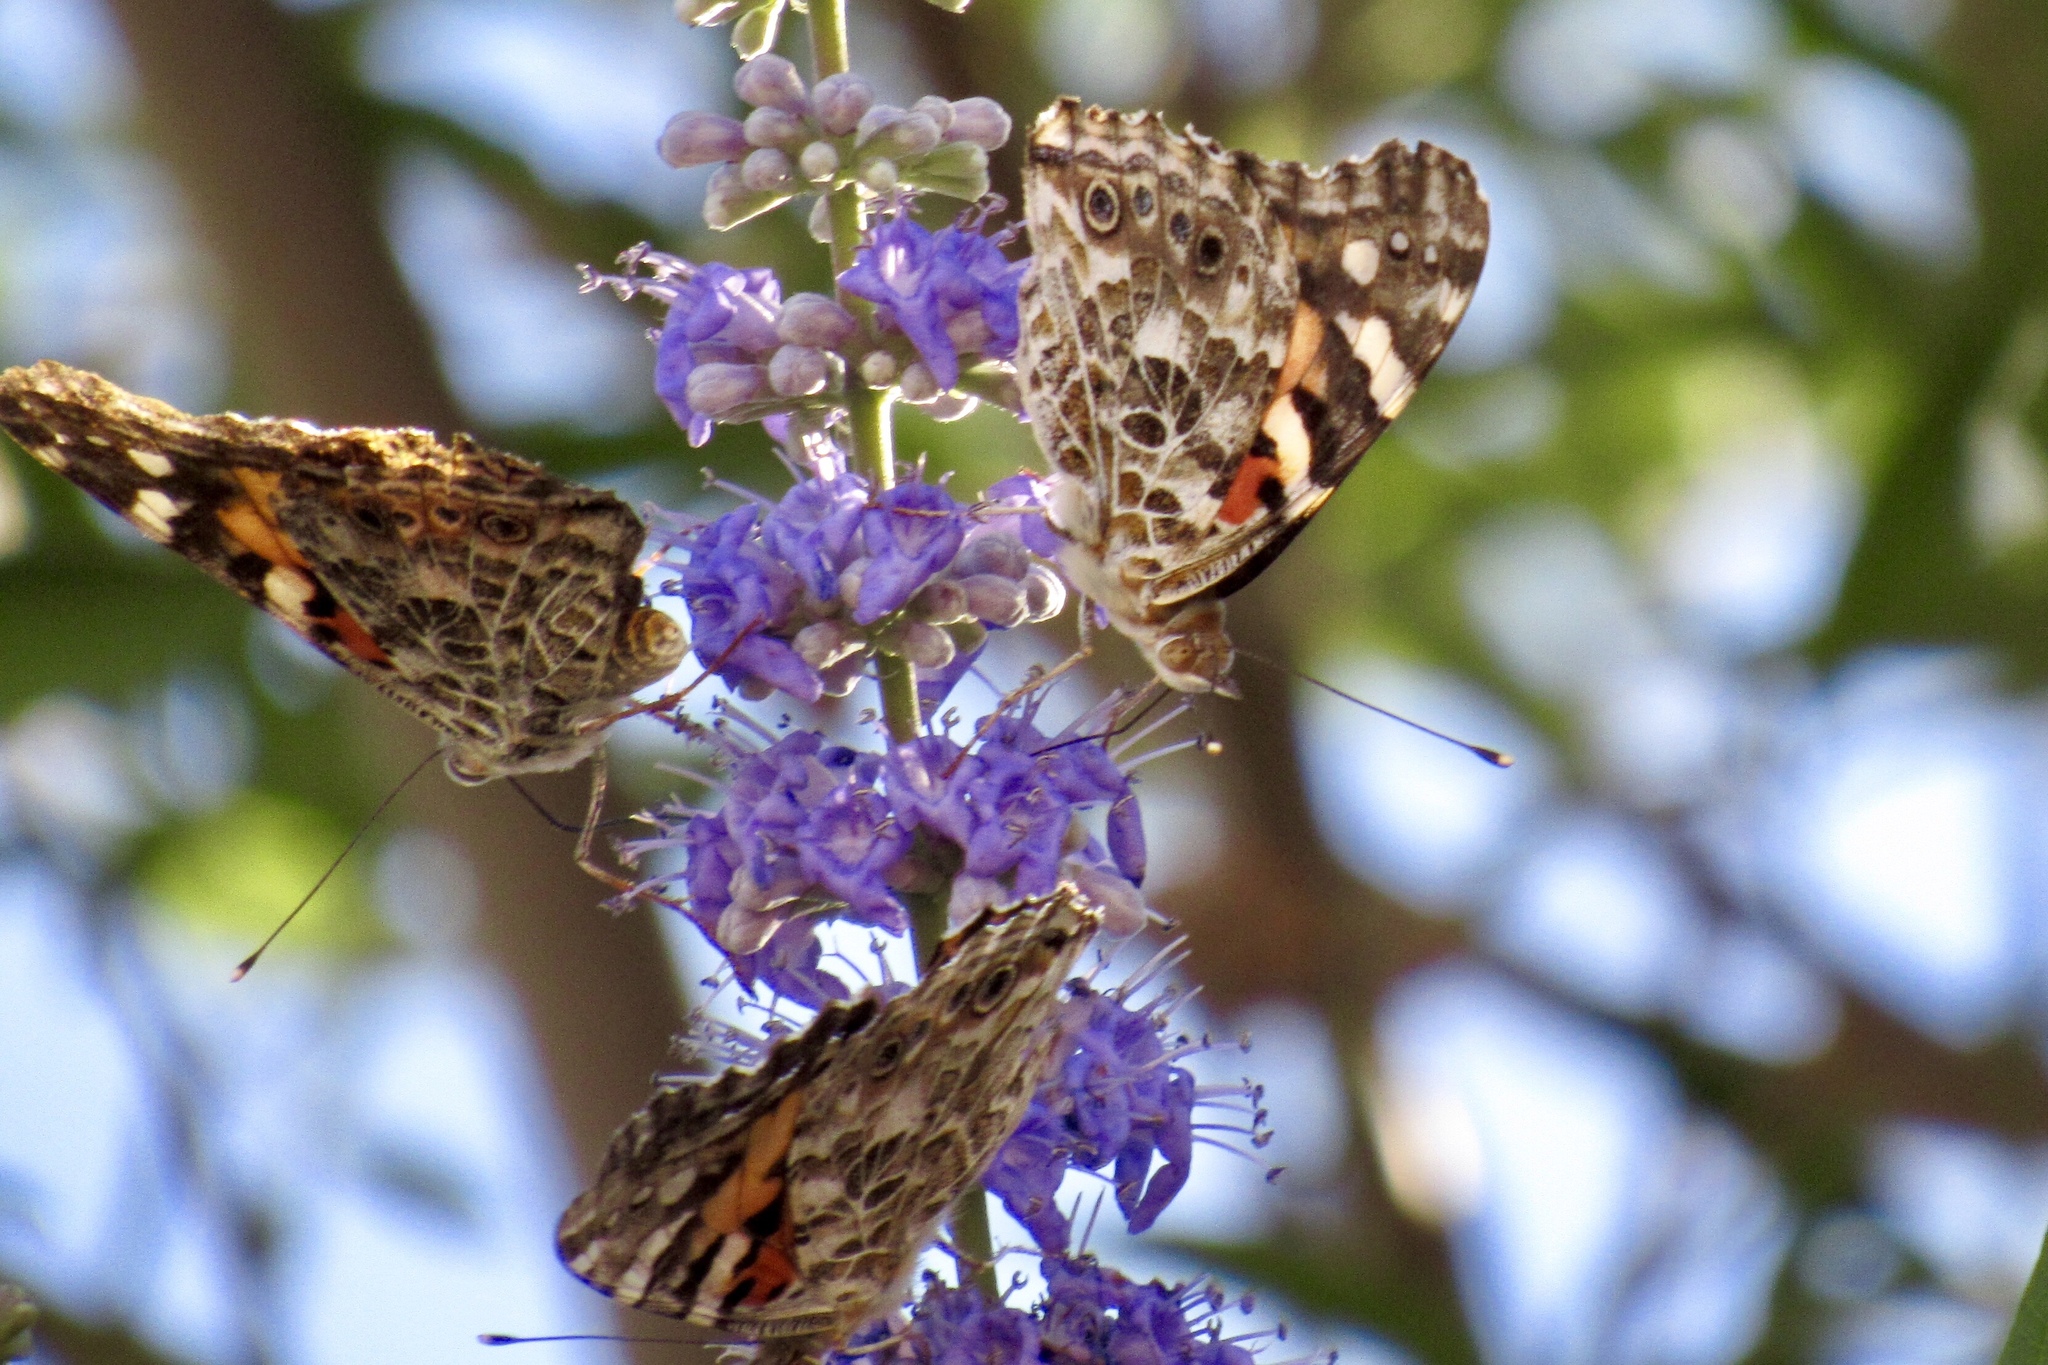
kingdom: Animalia
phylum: Arthropoda
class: Insecta
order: Lepidoptera
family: Nymphalidae
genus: Vanessa
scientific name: Vanessa cardui
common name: Painted lady
